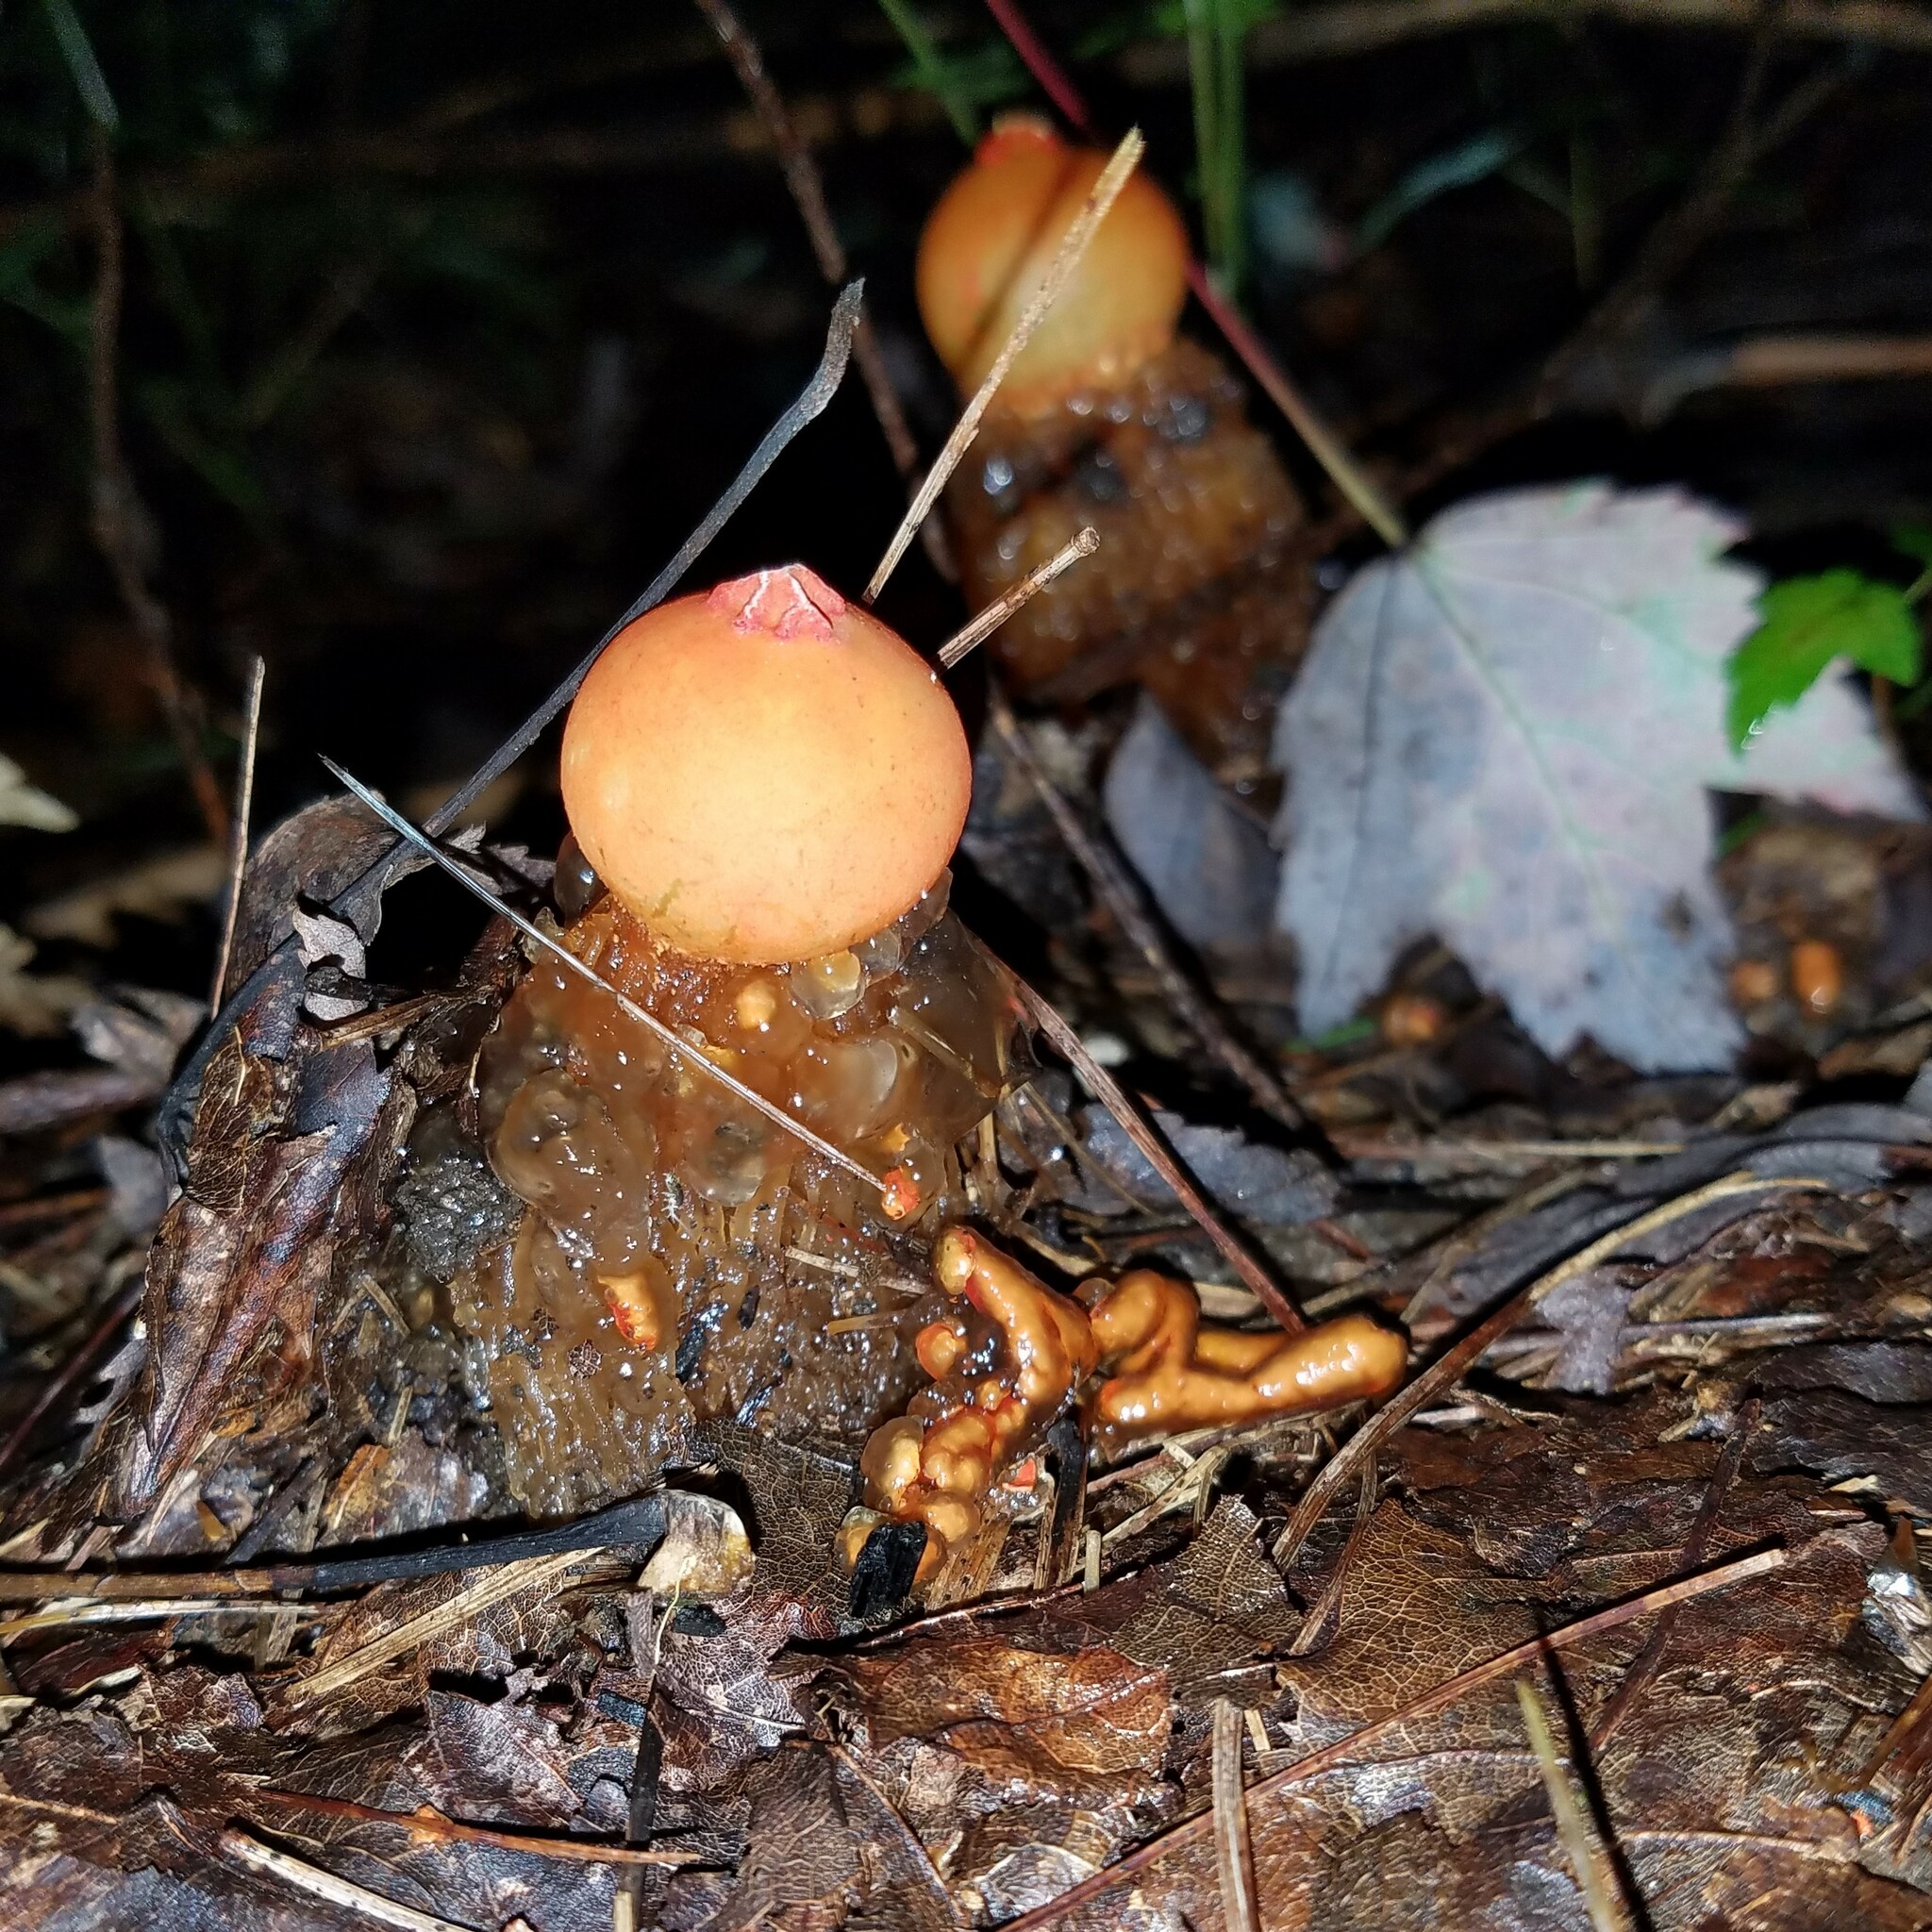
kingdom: Fungi
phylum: Basidiomycota
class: Agaricomycetes
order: Boletales
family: Calostomataceae
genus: Calostoma
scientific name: Calostoma cinnabarinum
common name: Stalked puffball-in-aspic
